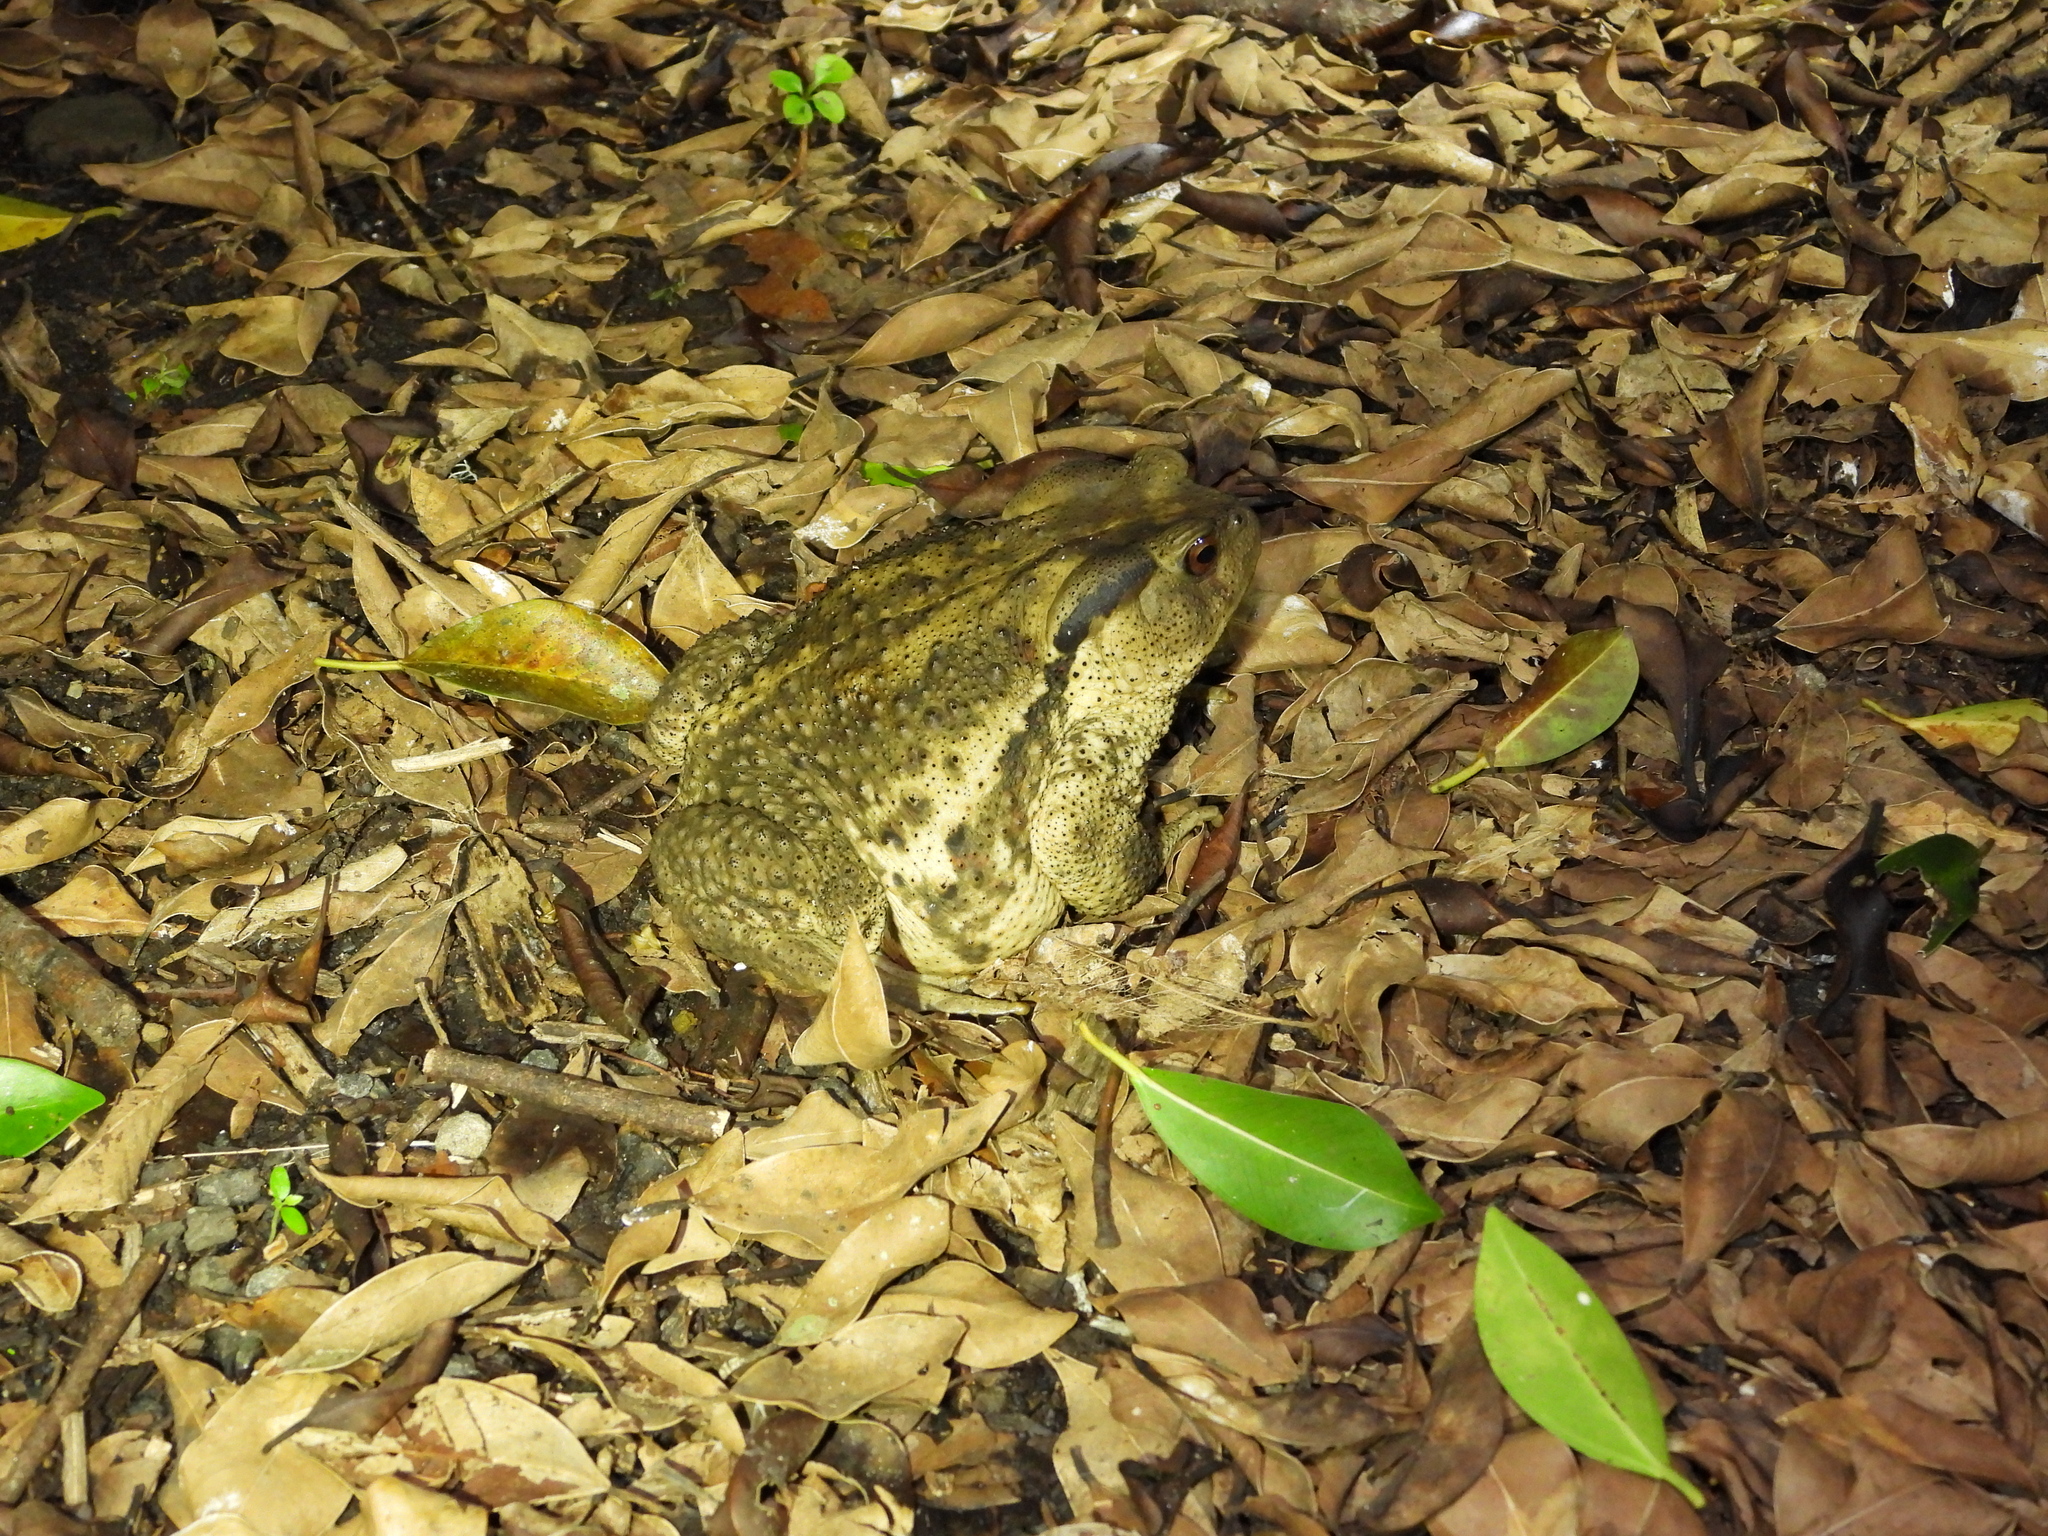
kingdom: Animalia
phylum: Chordata
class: Amphibia
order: Anura
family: Bufonidae
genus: Bufo
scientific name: Bufo bankorensis
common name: Bankor toad
